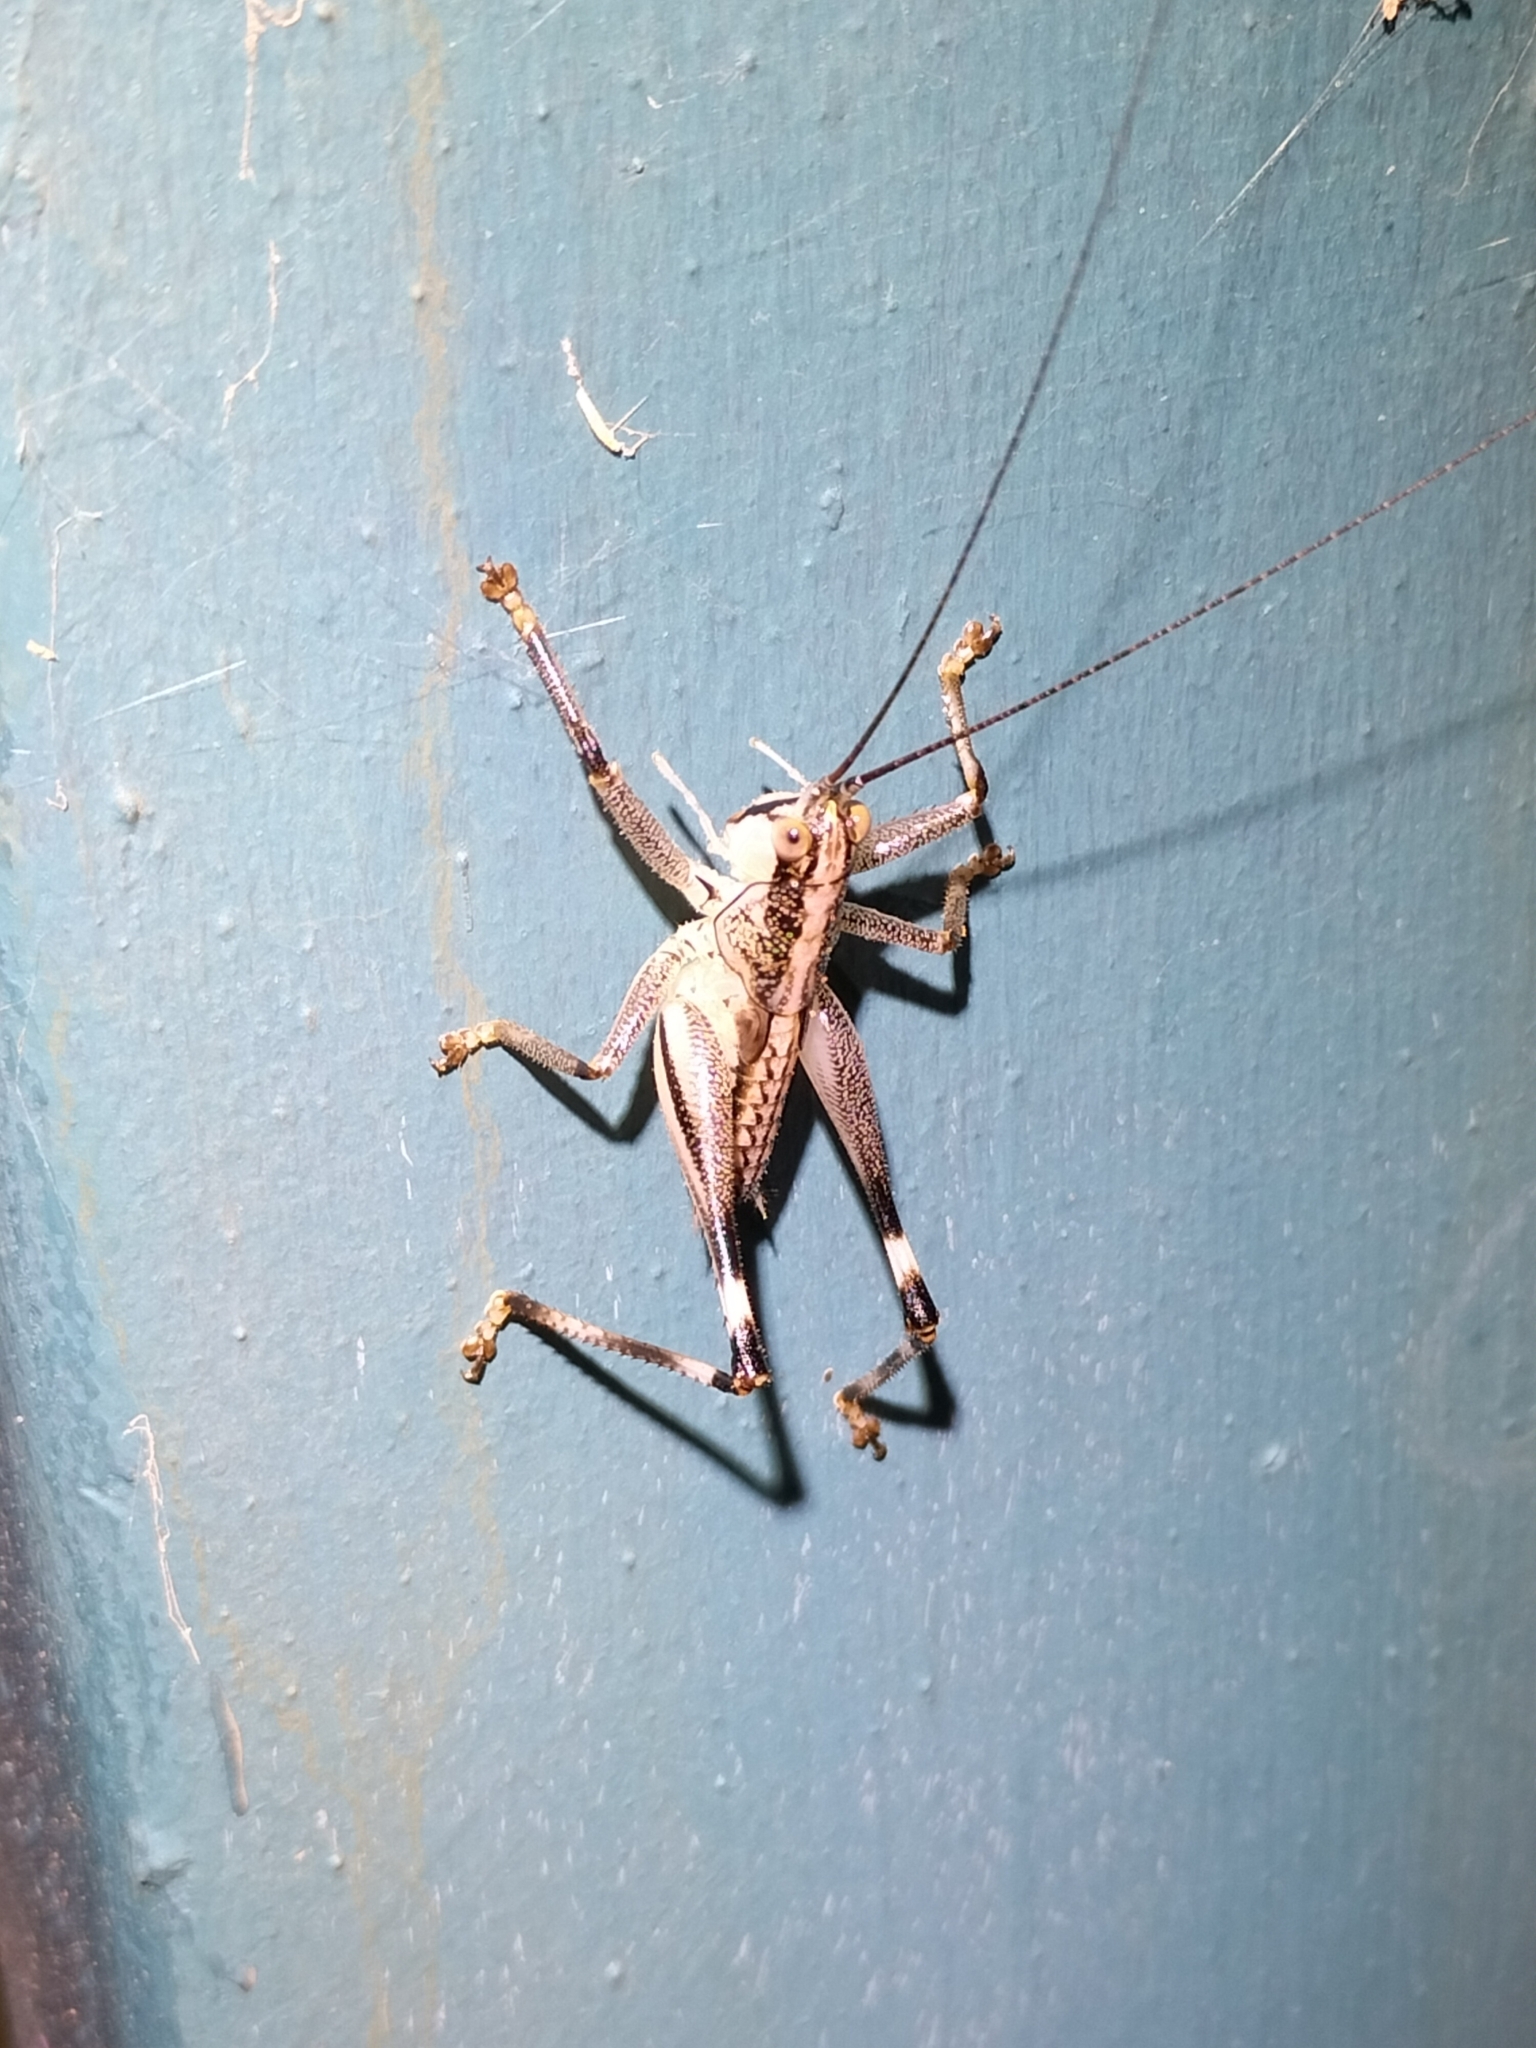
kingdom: Animalia
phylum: Arthropoda
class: Insecta
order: Orthoptera
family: Tettigoniidae
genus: Nicsara
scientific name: Nicsara bifasciata
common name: Striped nicsara
